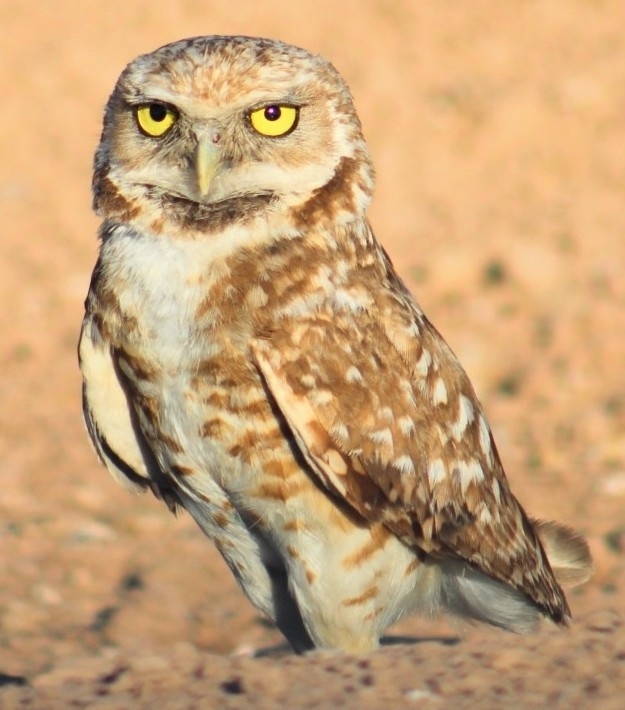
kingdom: Animalia
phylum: Chordata
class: Aves
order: Strigiformes
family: Strigidae
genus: Athene
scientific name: Athene cunicularia
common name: Burrowing owl
